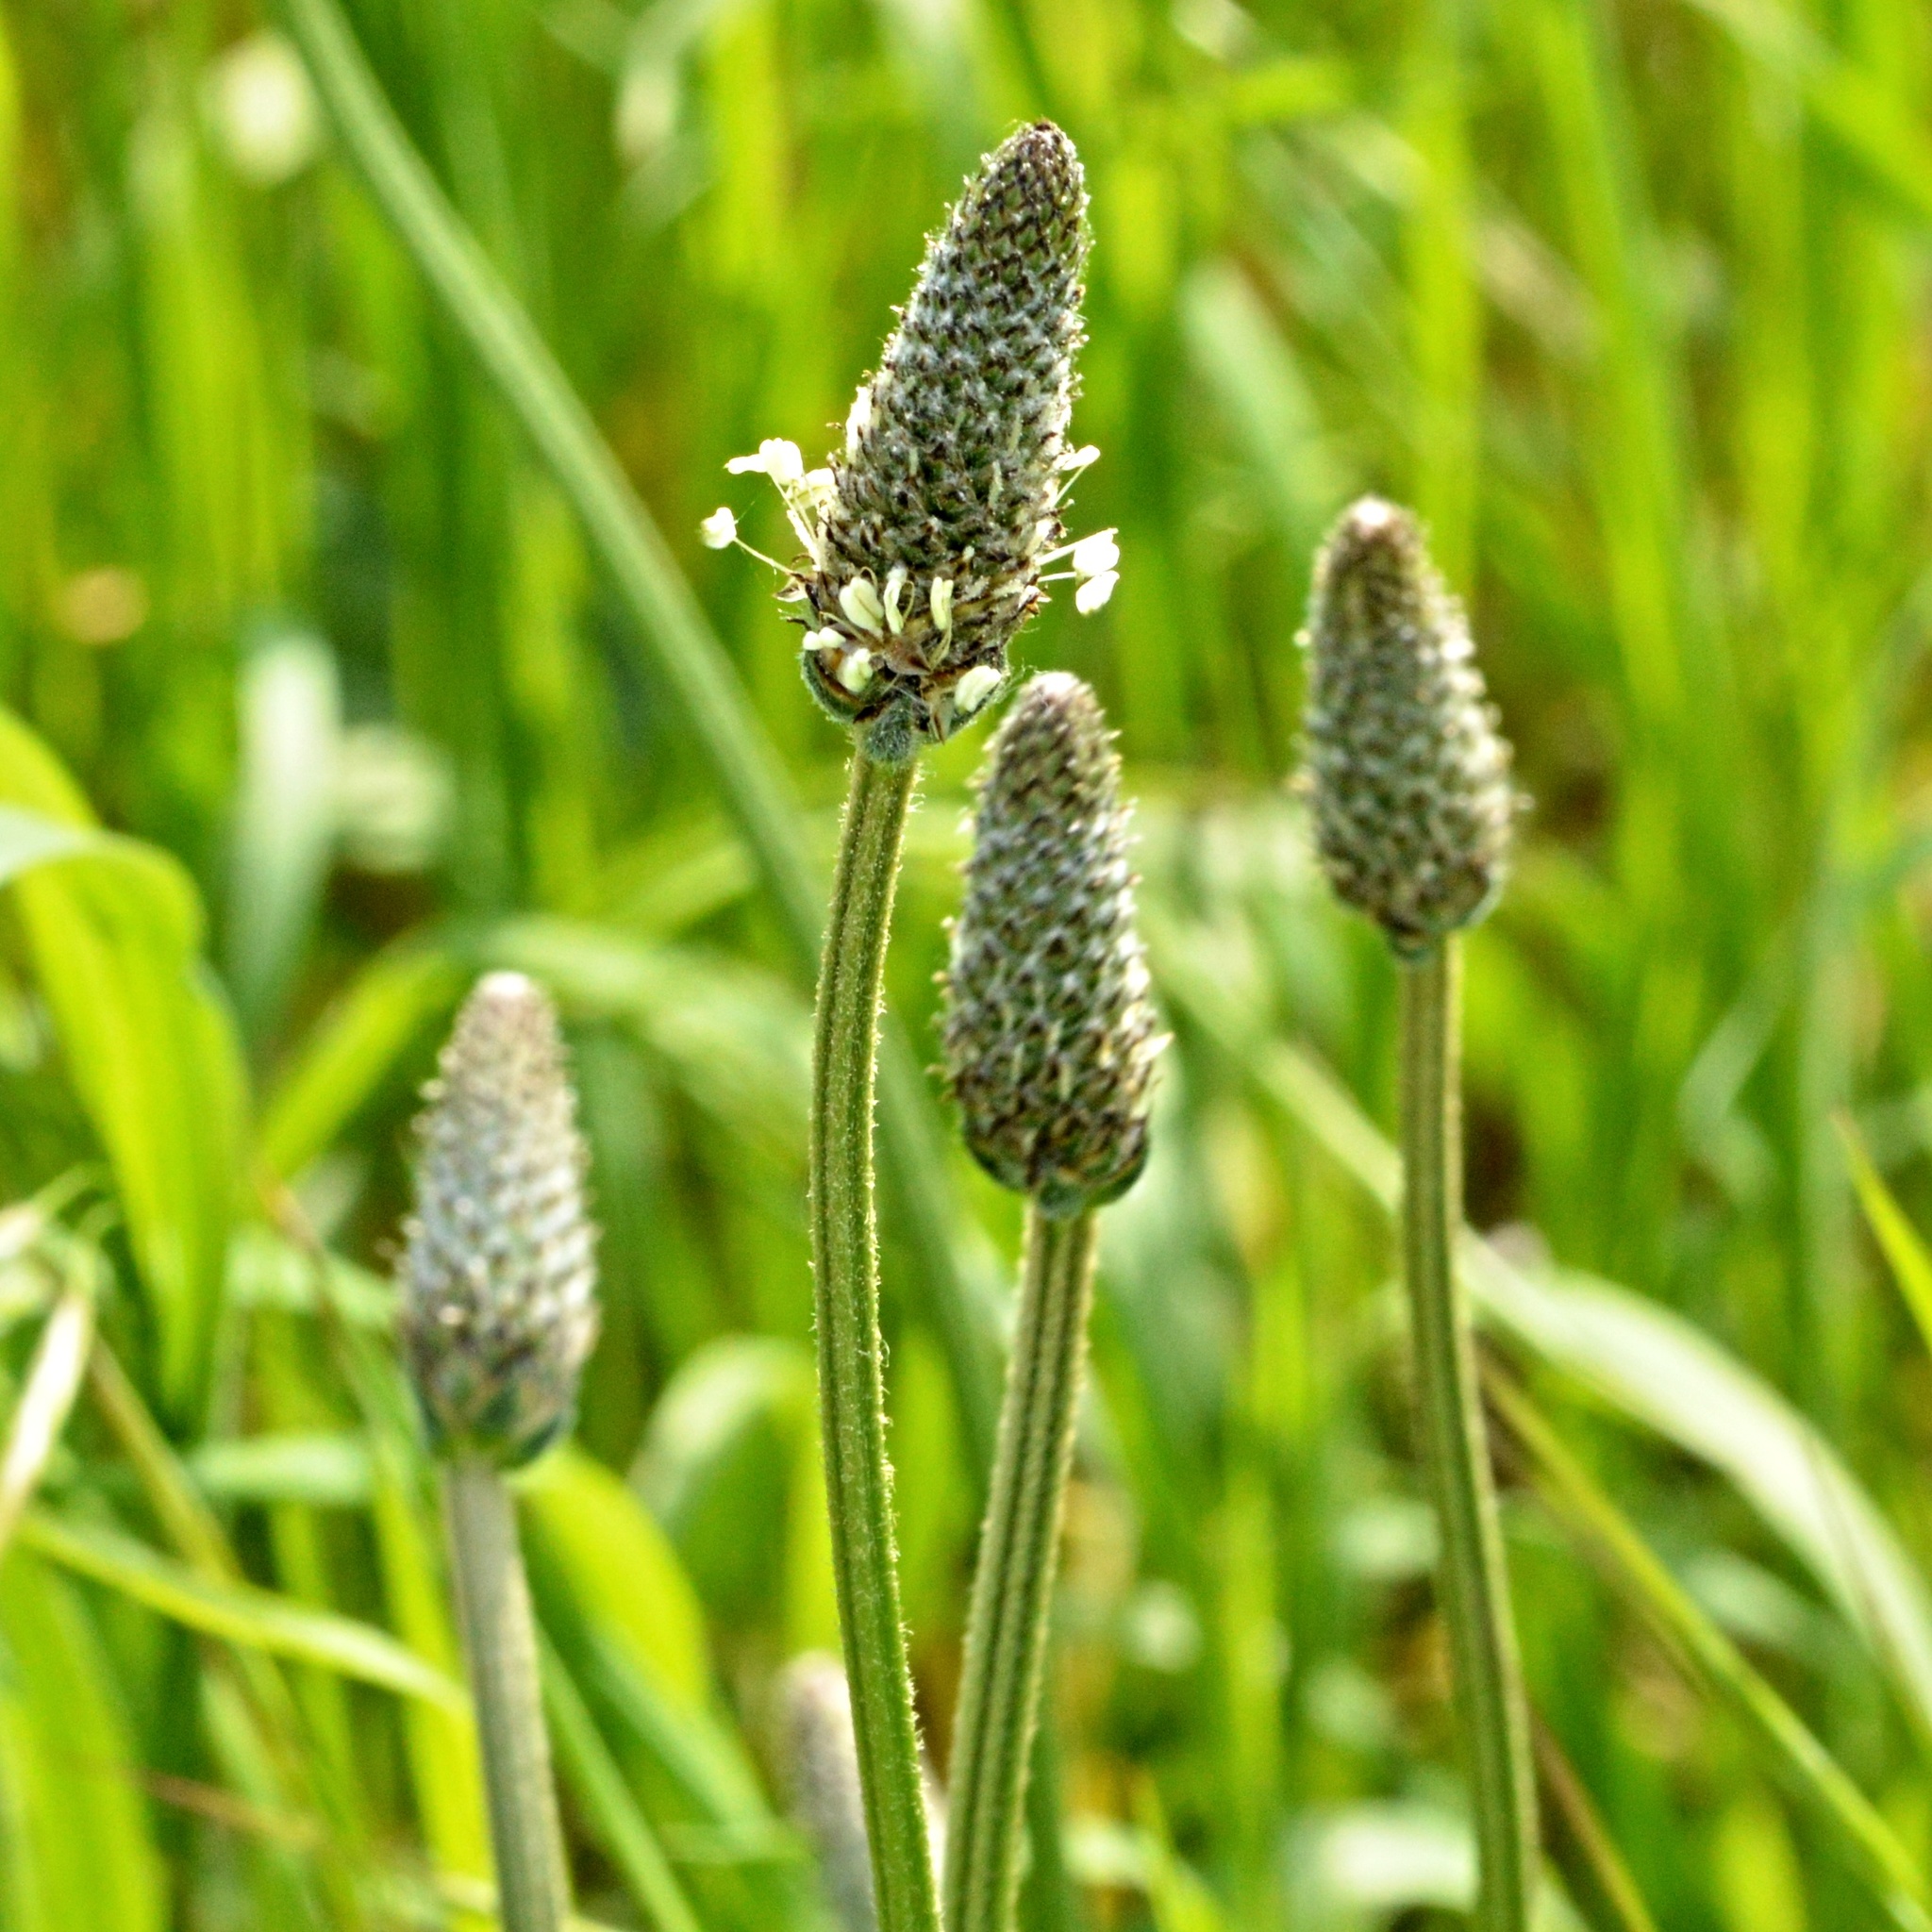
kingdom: Plantae
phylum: Tracheophyta
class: Magnoliopsida
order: Lamiales
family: Plantaginaceae
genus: Plantago
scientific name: Plantago lanceolata
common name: Ribwort plantain
